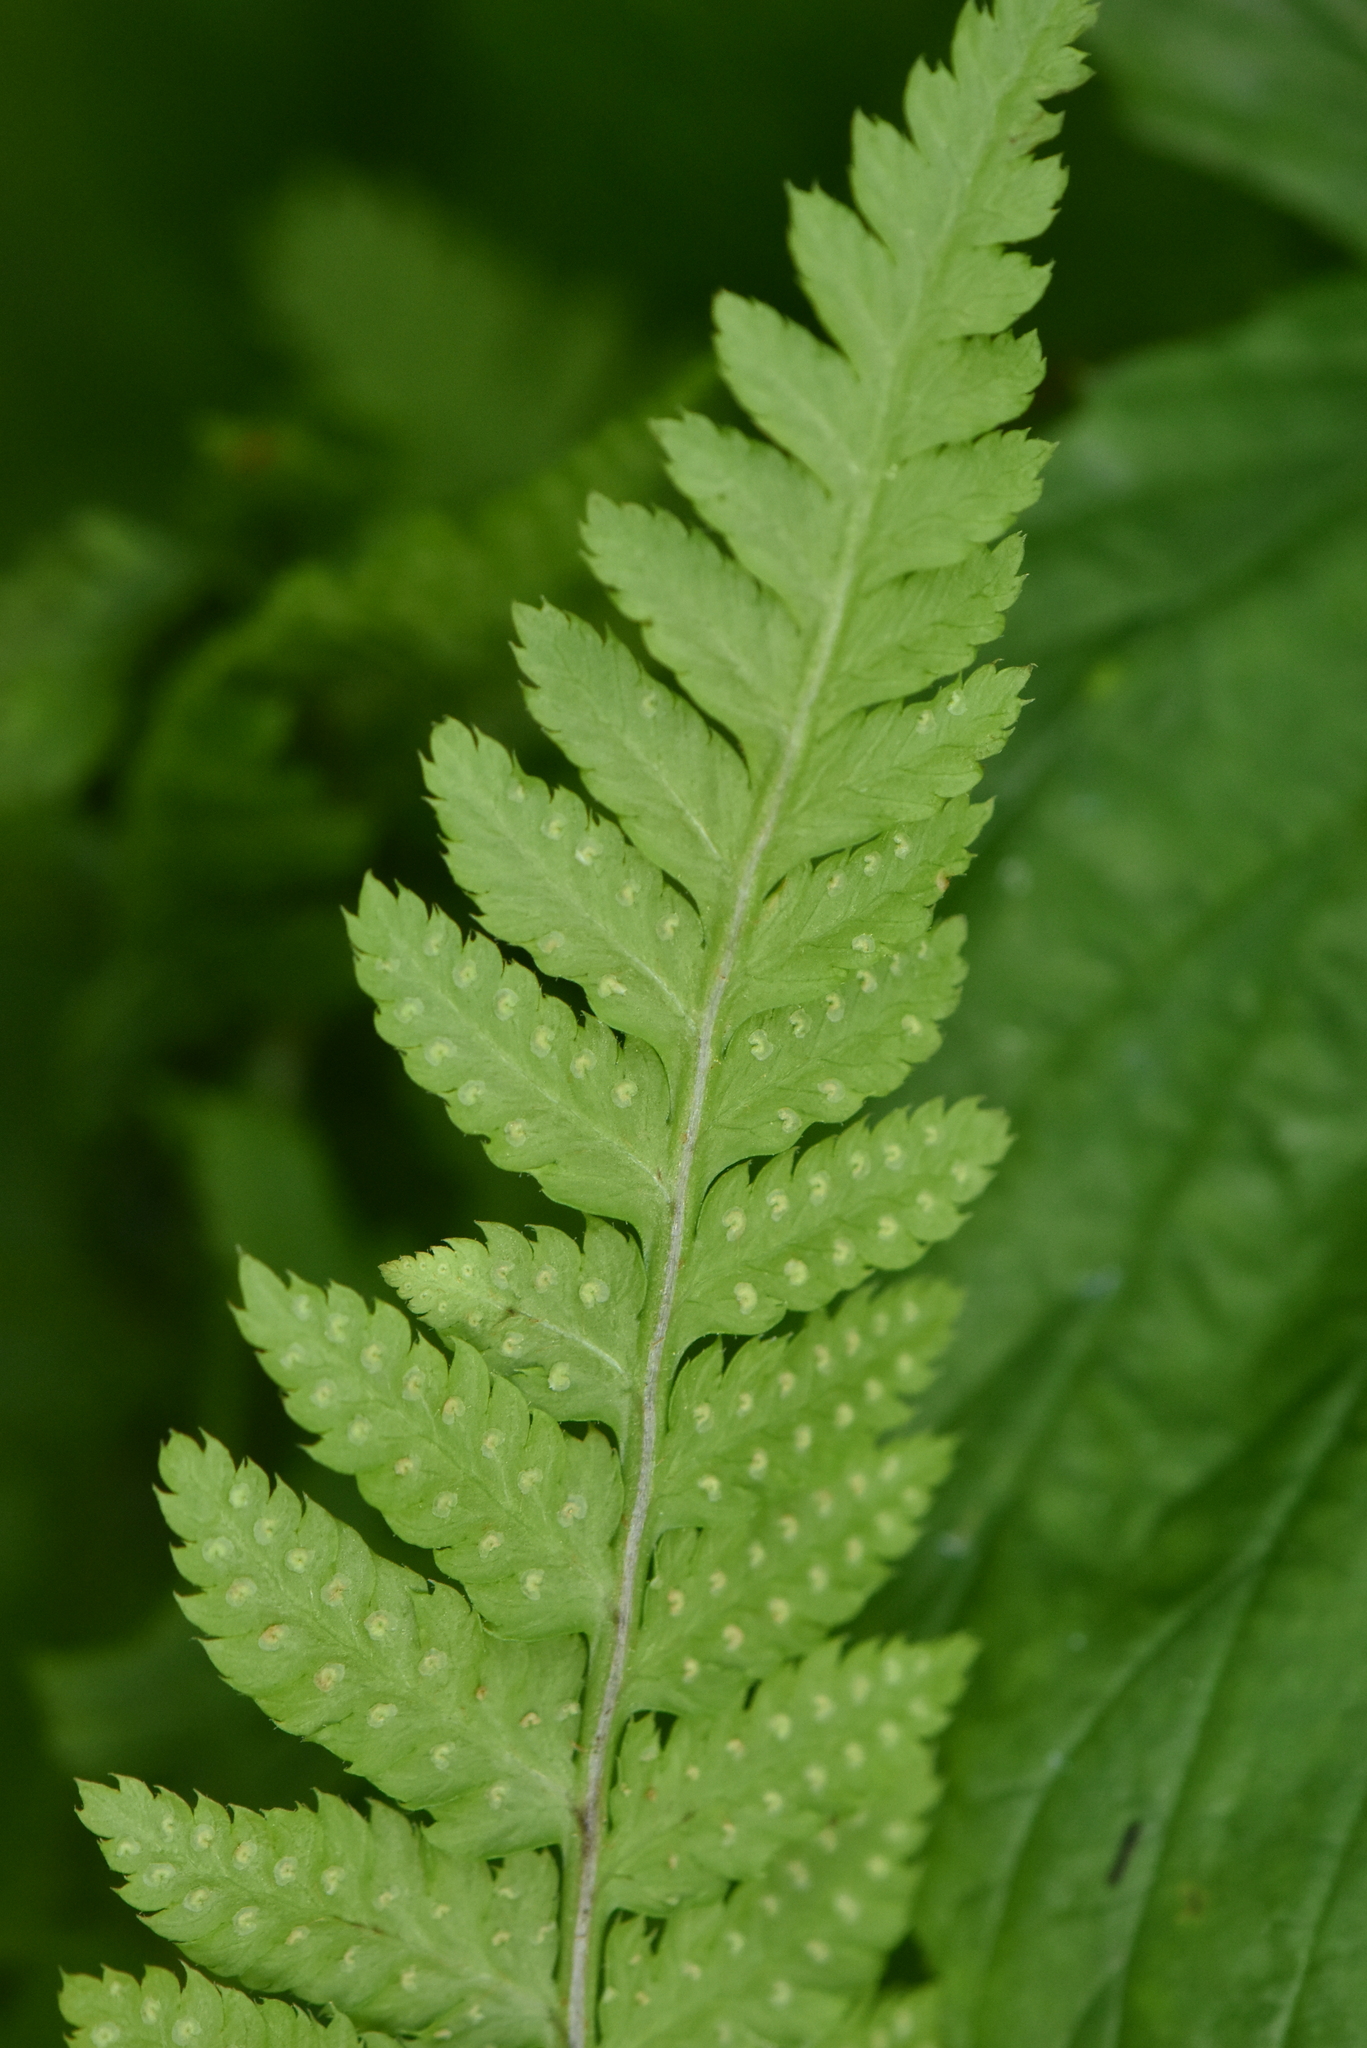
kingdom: Plantae
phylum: Tracheophyta
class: Polypodiopsida
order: Polypodiales
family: Dryopteridaceae
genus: Dryopteris
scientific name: Dryopteris carthusiana
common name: Narrow buckler-fern
